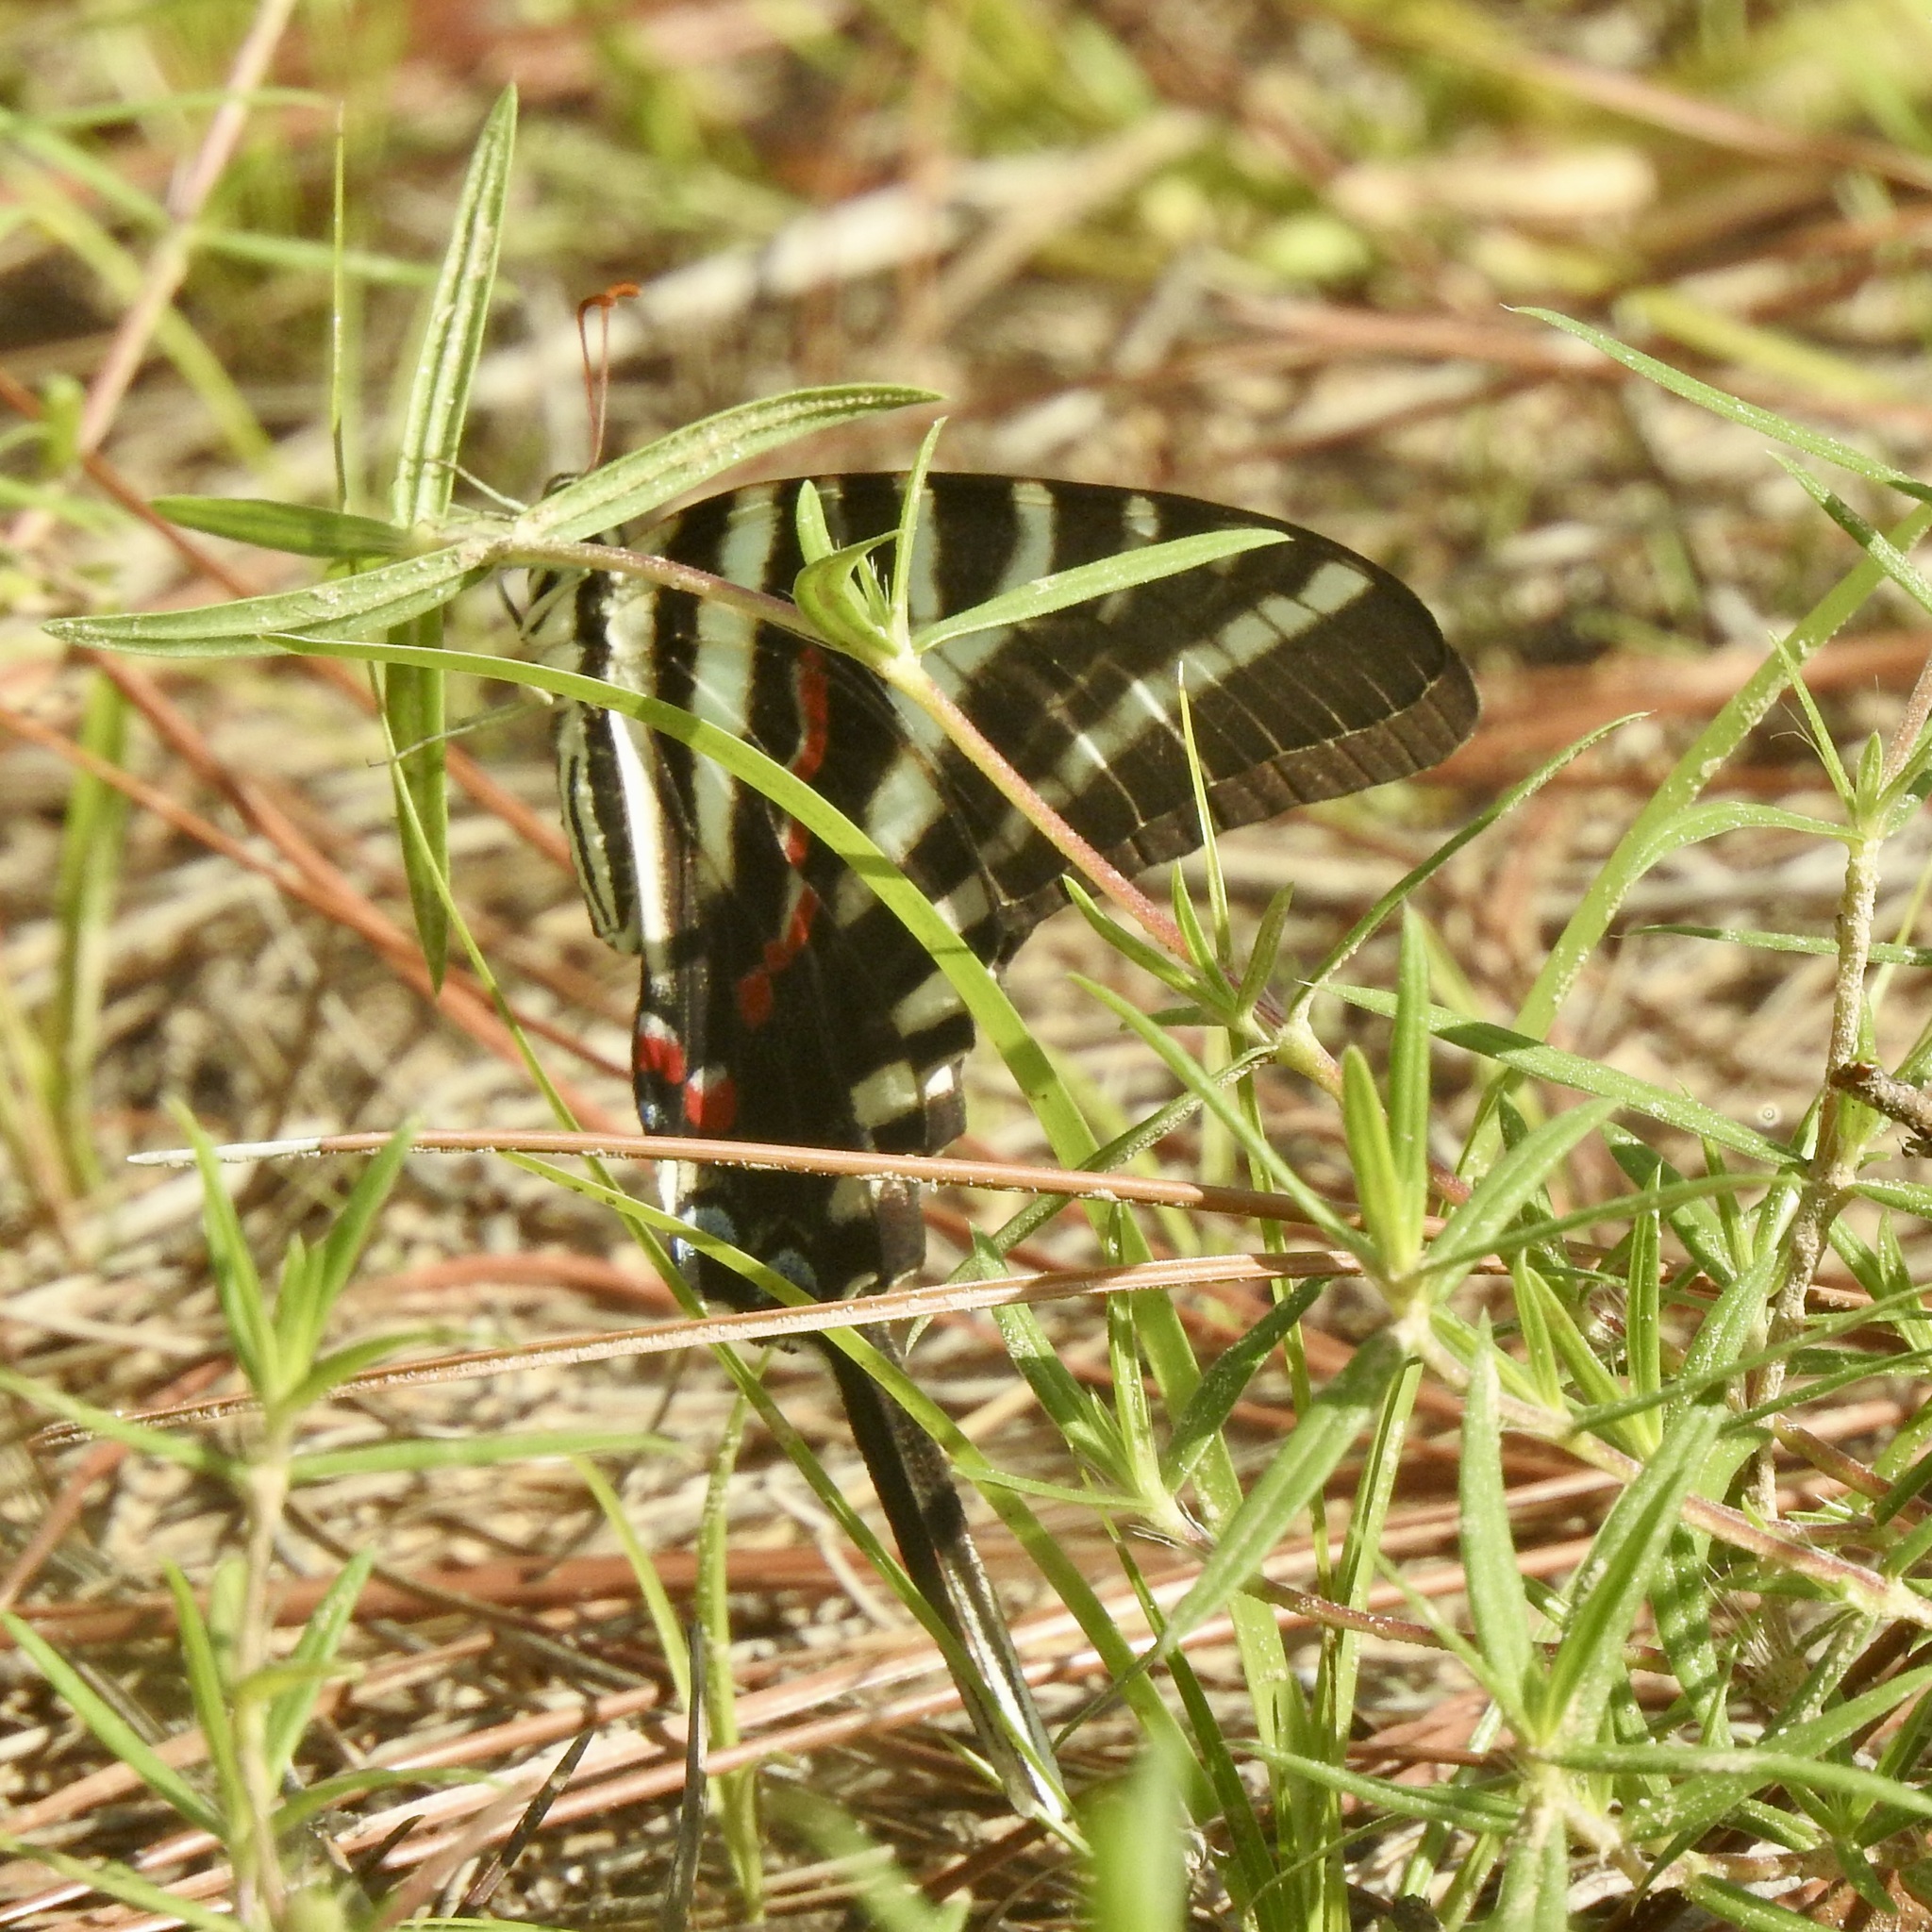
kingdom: Animalia
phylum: Arthropoda
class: Insecta
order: Lepidoptera
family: Papilionidae
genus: Protographium
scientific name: Protographium marcellus
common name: Zebra swallowtail
